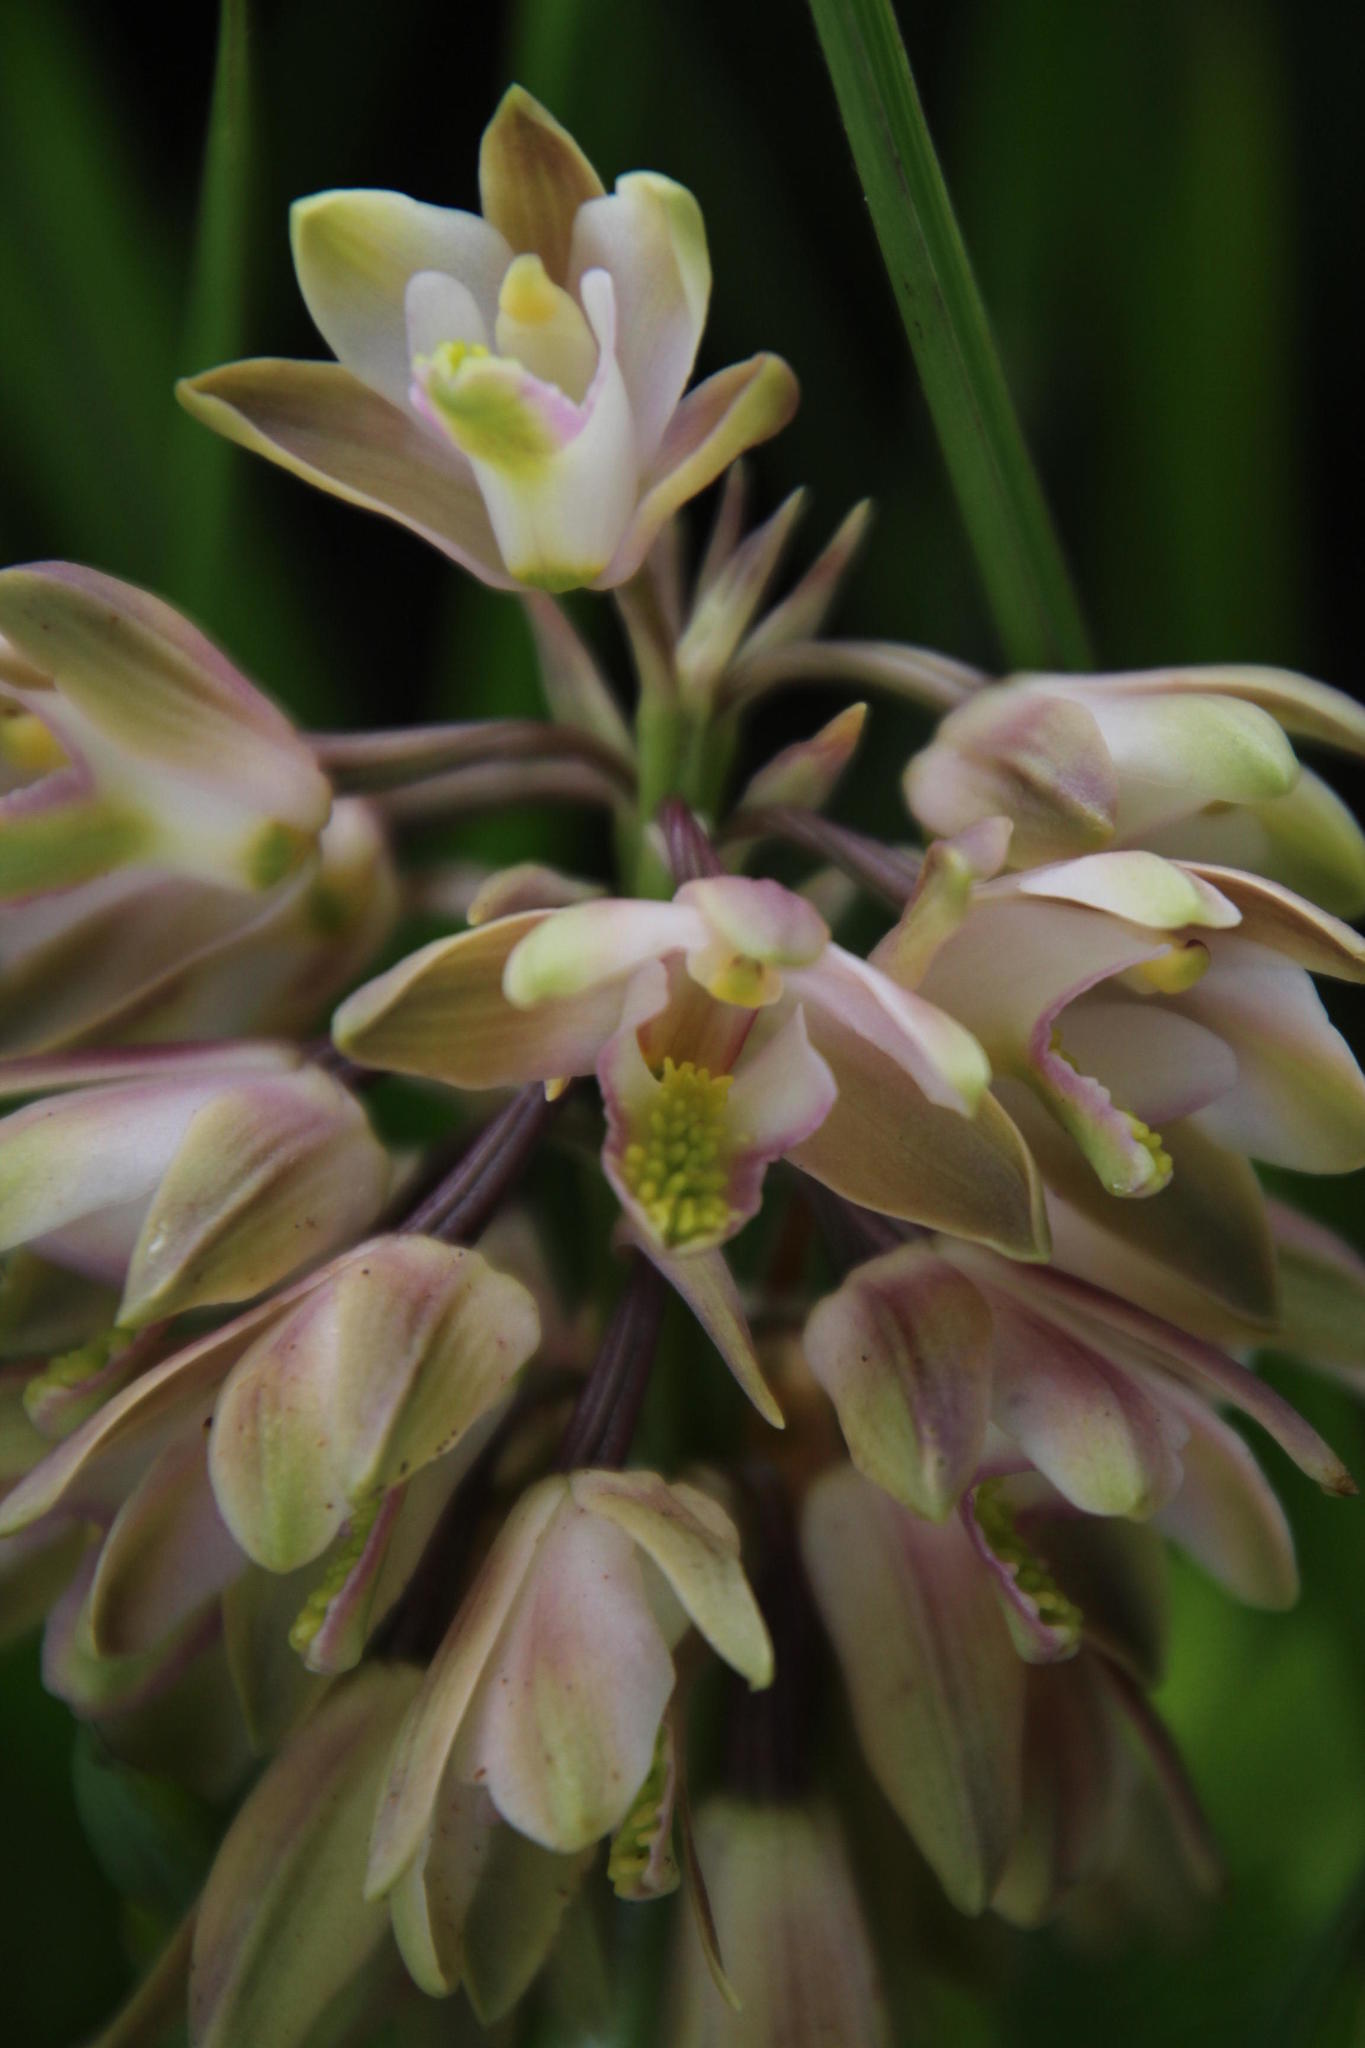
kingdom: Plantae
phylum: Tracheophyta
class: Liliopsida
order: Asparagales
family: Orchidaceae
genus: Eulophia
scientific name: Eulophia huttonii
